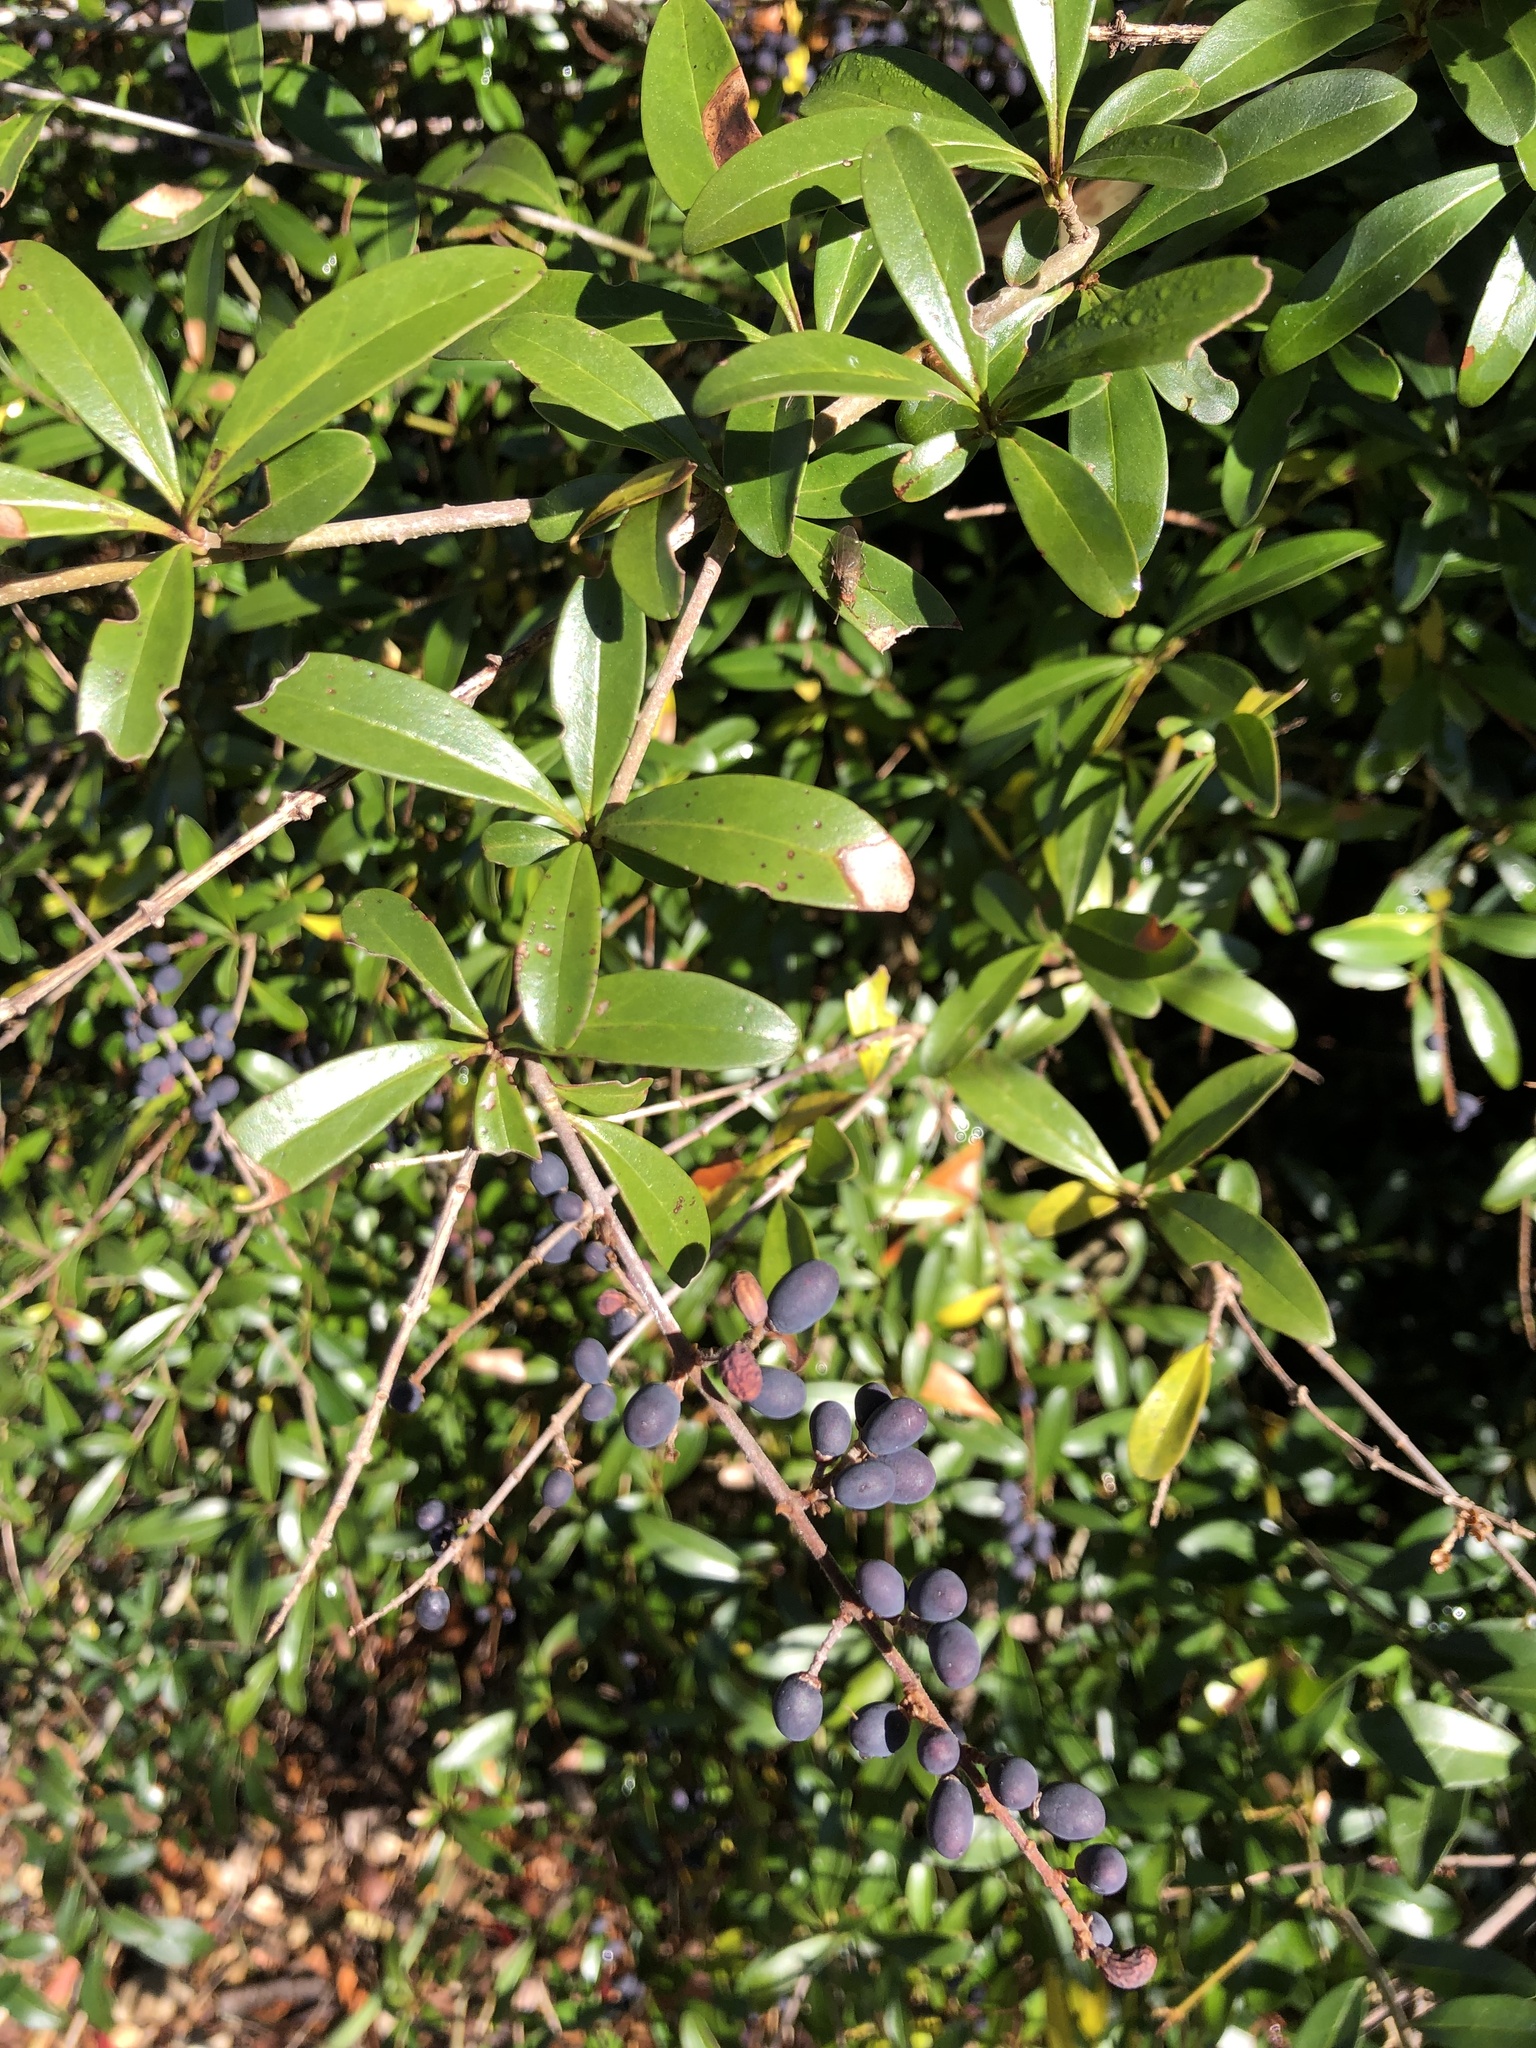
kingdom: Plantae
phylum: Tracheophyta
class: Magnoliopsida
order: Lamiales
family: Oleaceae
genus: Ligustrum
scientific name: Ligustrum quihoui
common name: Waxyleaf privet
